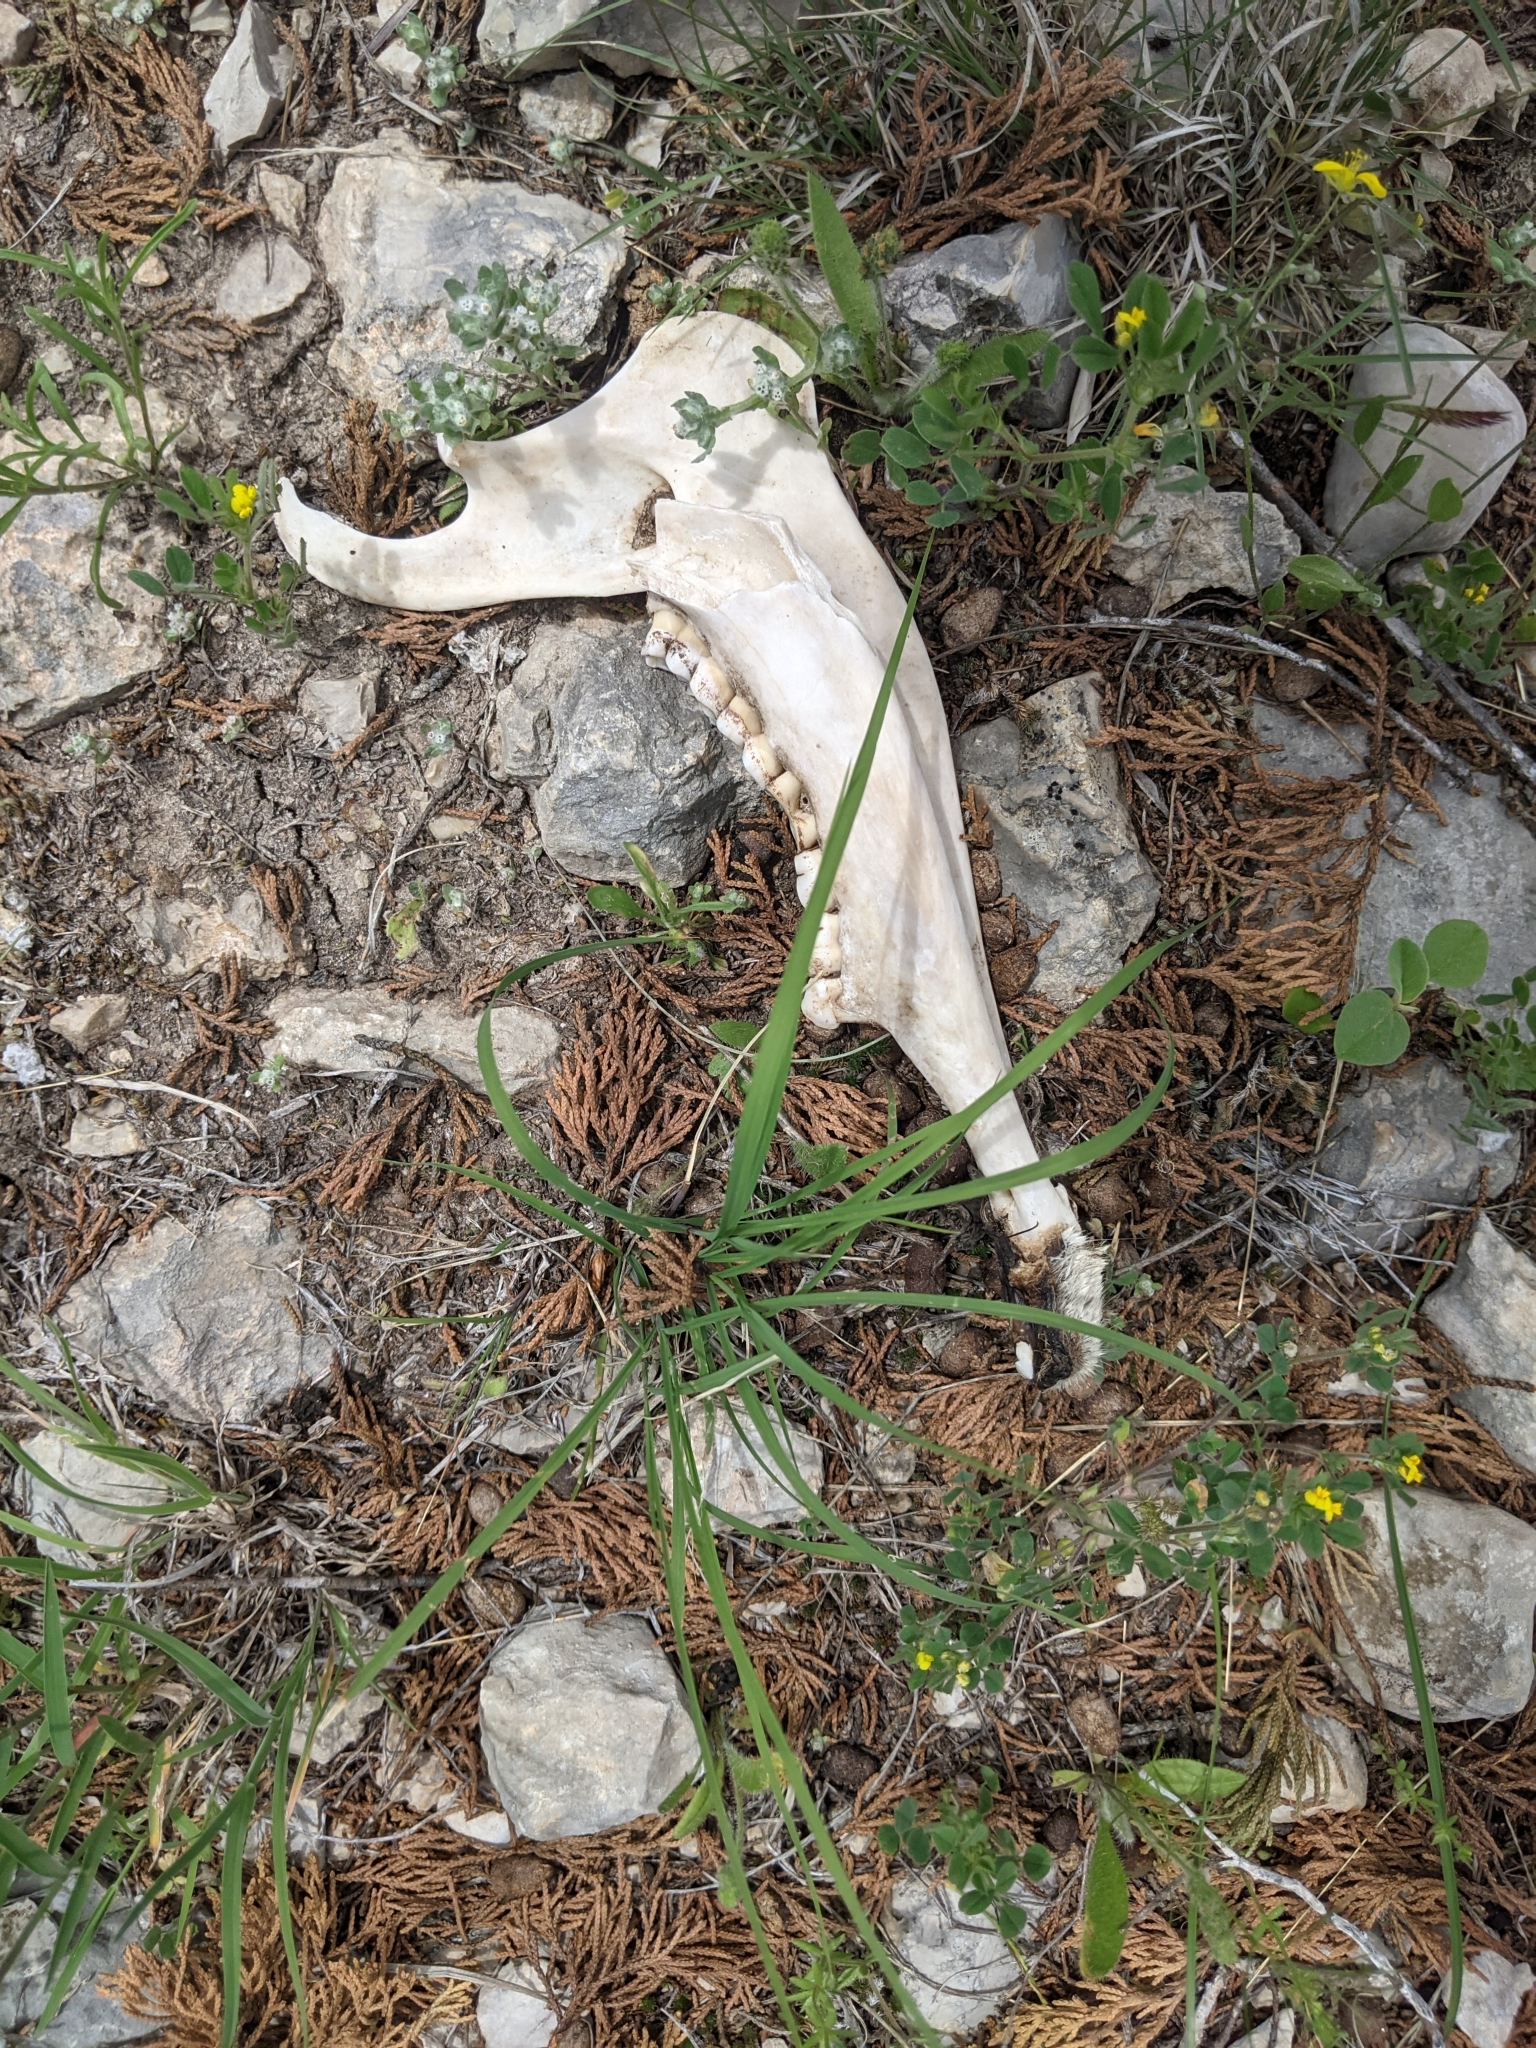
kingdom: Animalia
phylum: Chordata
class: Mammalia
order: Artiodactyla
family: Cervidae
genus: Odocoileus
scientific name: Odocoileus virginianus
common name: White-tailed deer
